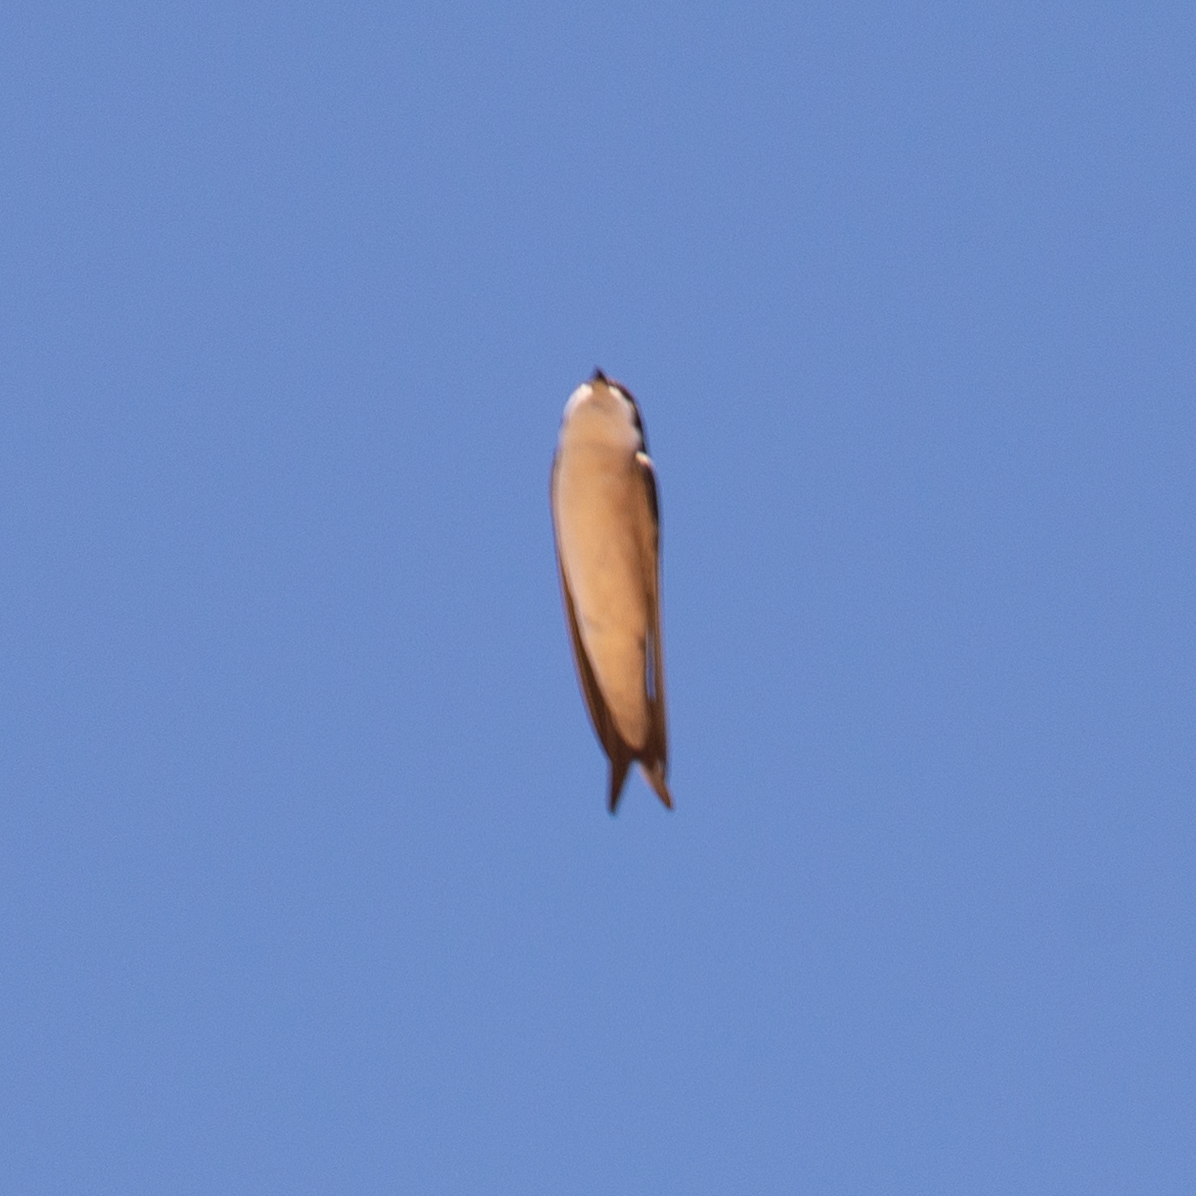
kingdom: Animalia
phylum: Chordata
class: Aves
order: Passeriformes
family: Hirundinidae
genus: Delichon
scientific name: Delichon urbicum
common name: Common house martin
